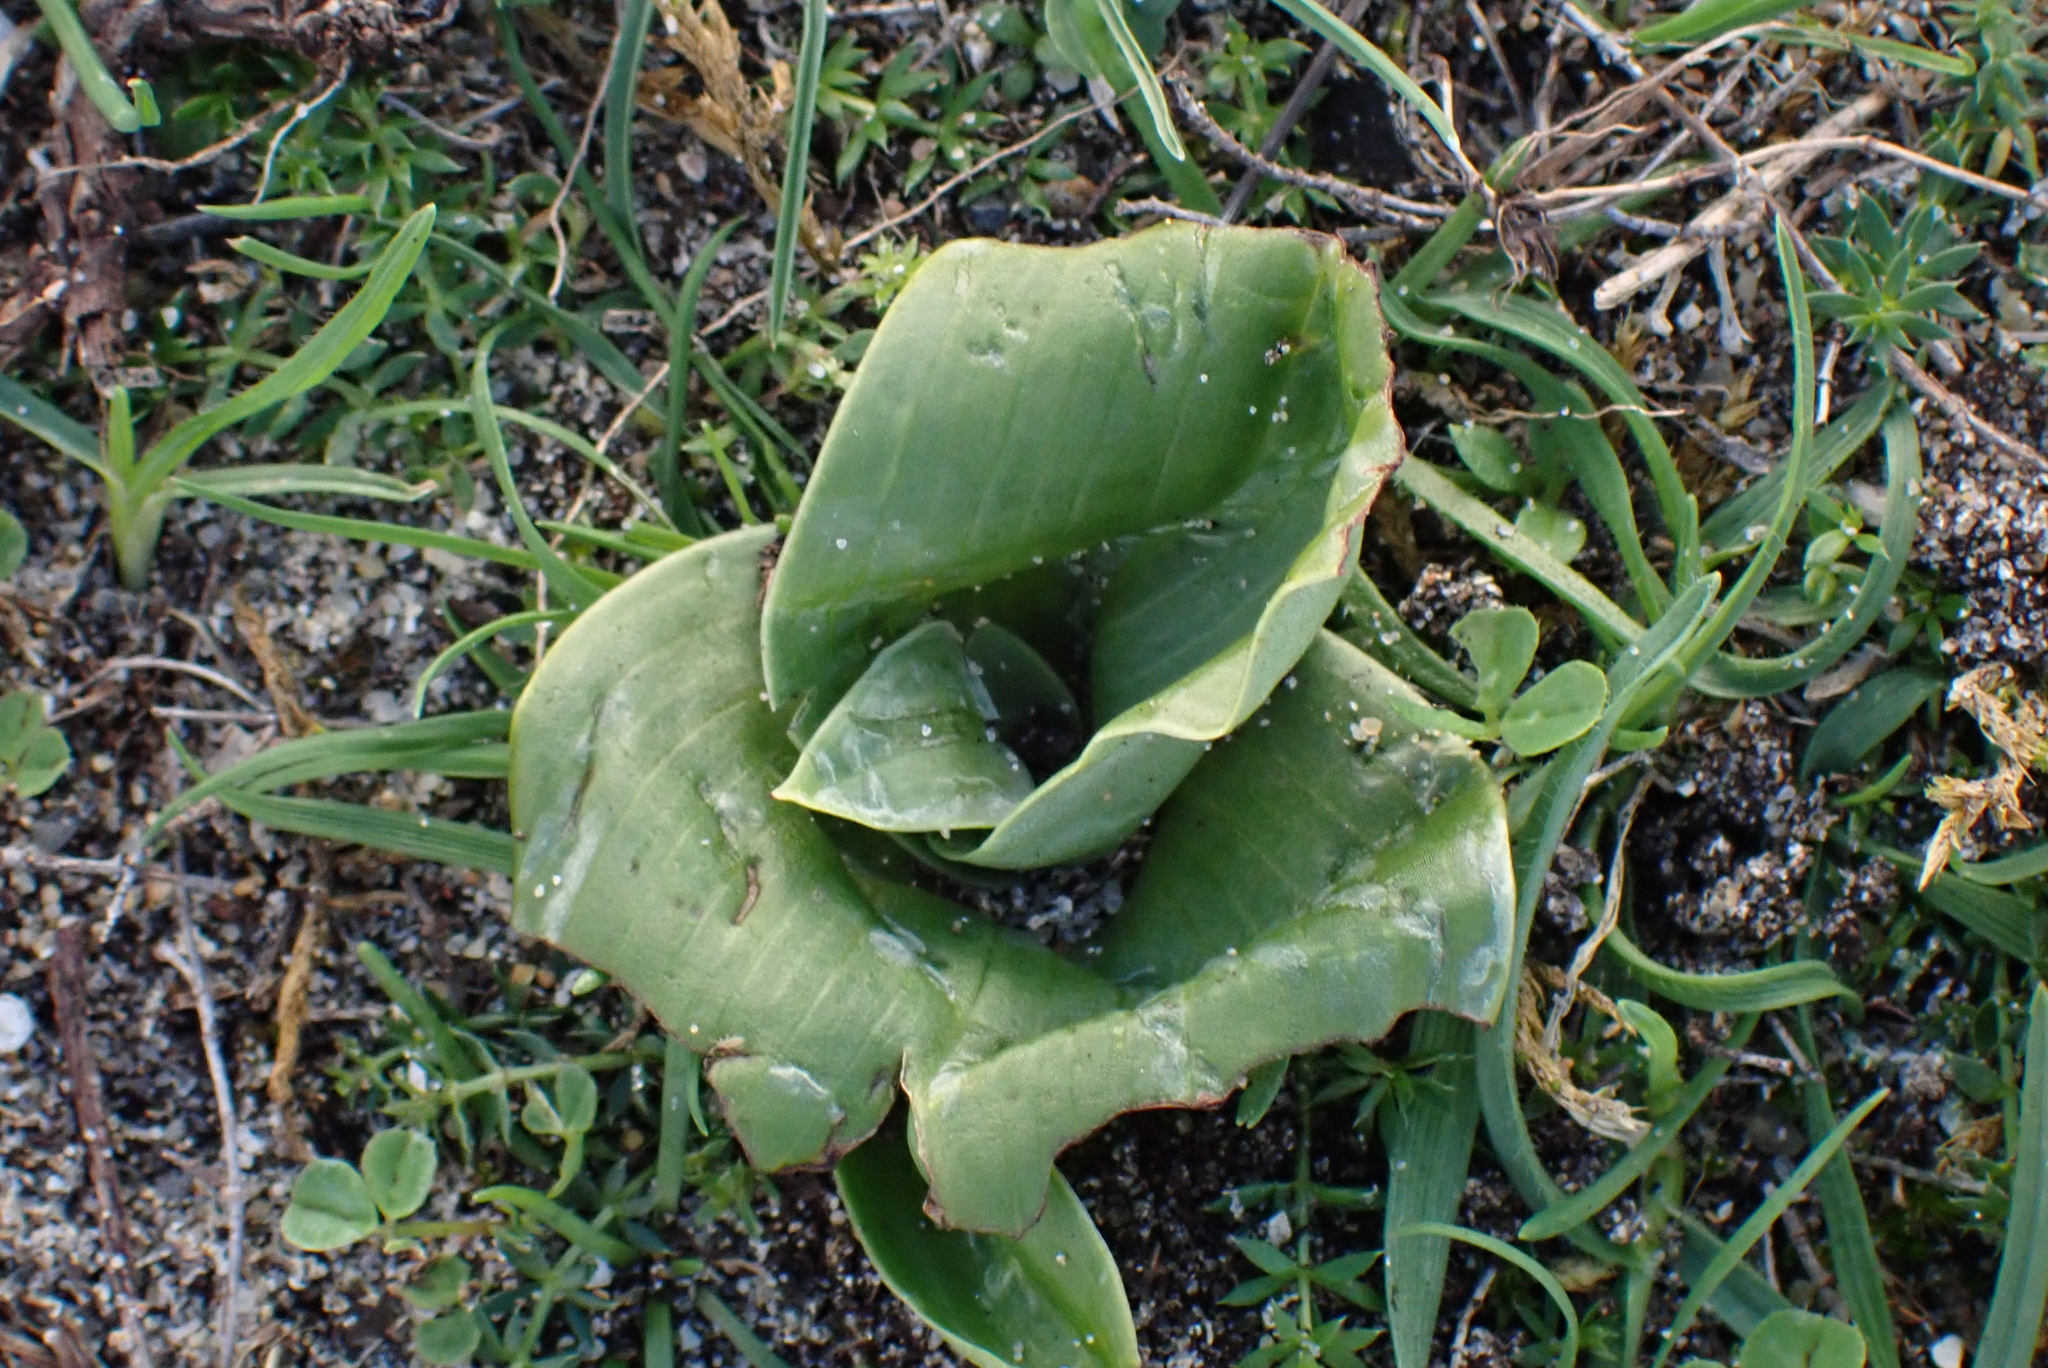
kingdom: Plantae
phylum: Tracheophyta
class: Liliopsida
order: Asparagales
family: Orchidaceae
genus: Himantoglossum
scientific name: Himantoglossum hircinum
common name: Lizard orchid
